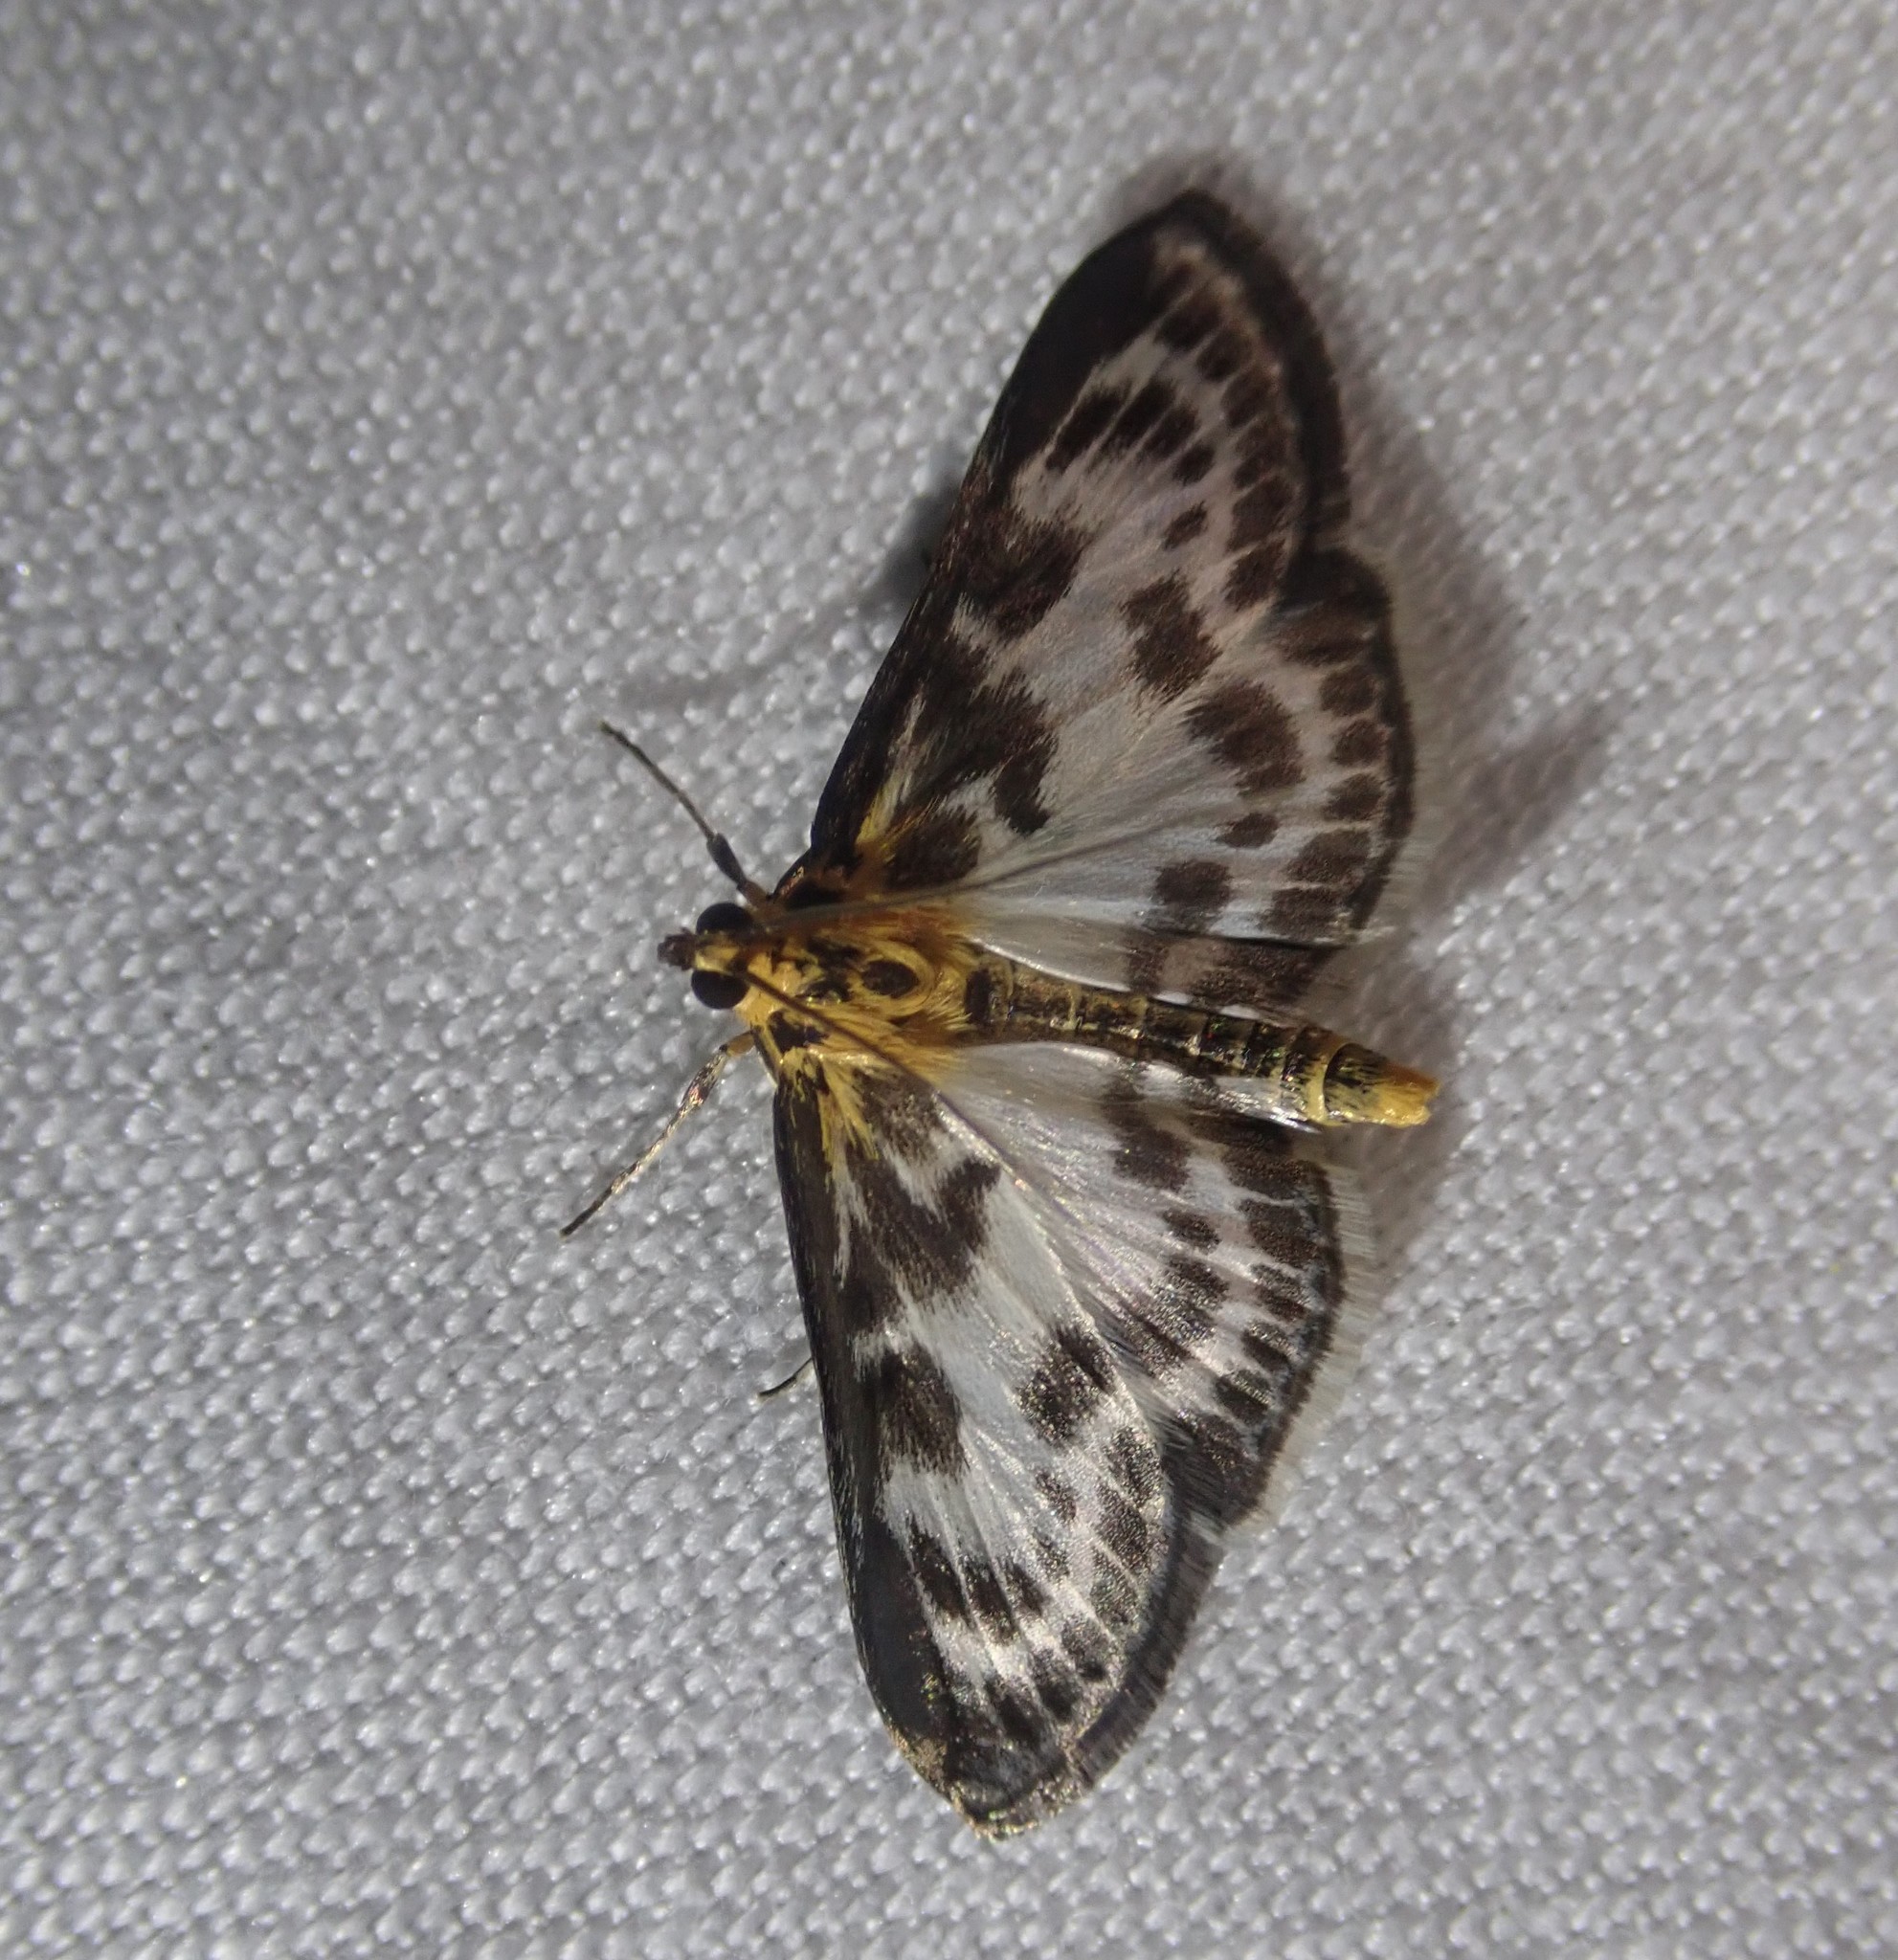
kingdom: Animalia
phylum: Arthropoda
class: Insecta
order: Lepidoptera
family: Crambidae
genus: Anania
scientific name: Anania hortulata
